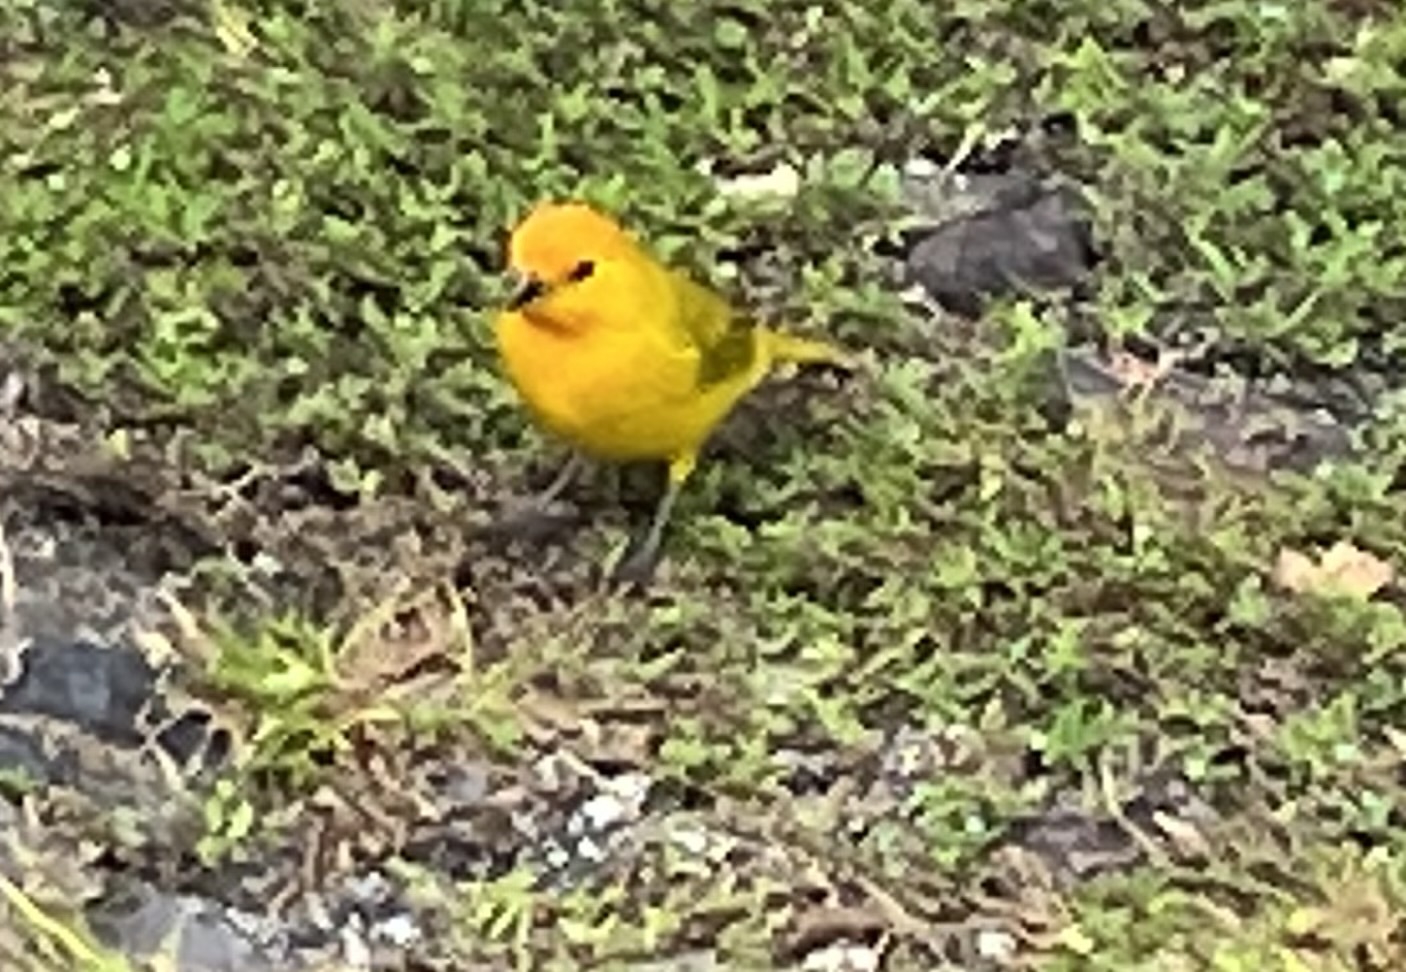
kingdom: Animalia
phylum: Chordata
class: Aves
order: Passeriformes
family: Thraupidae
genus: Sicalis
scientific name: Sicalis flaveola
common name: Saffron finch
